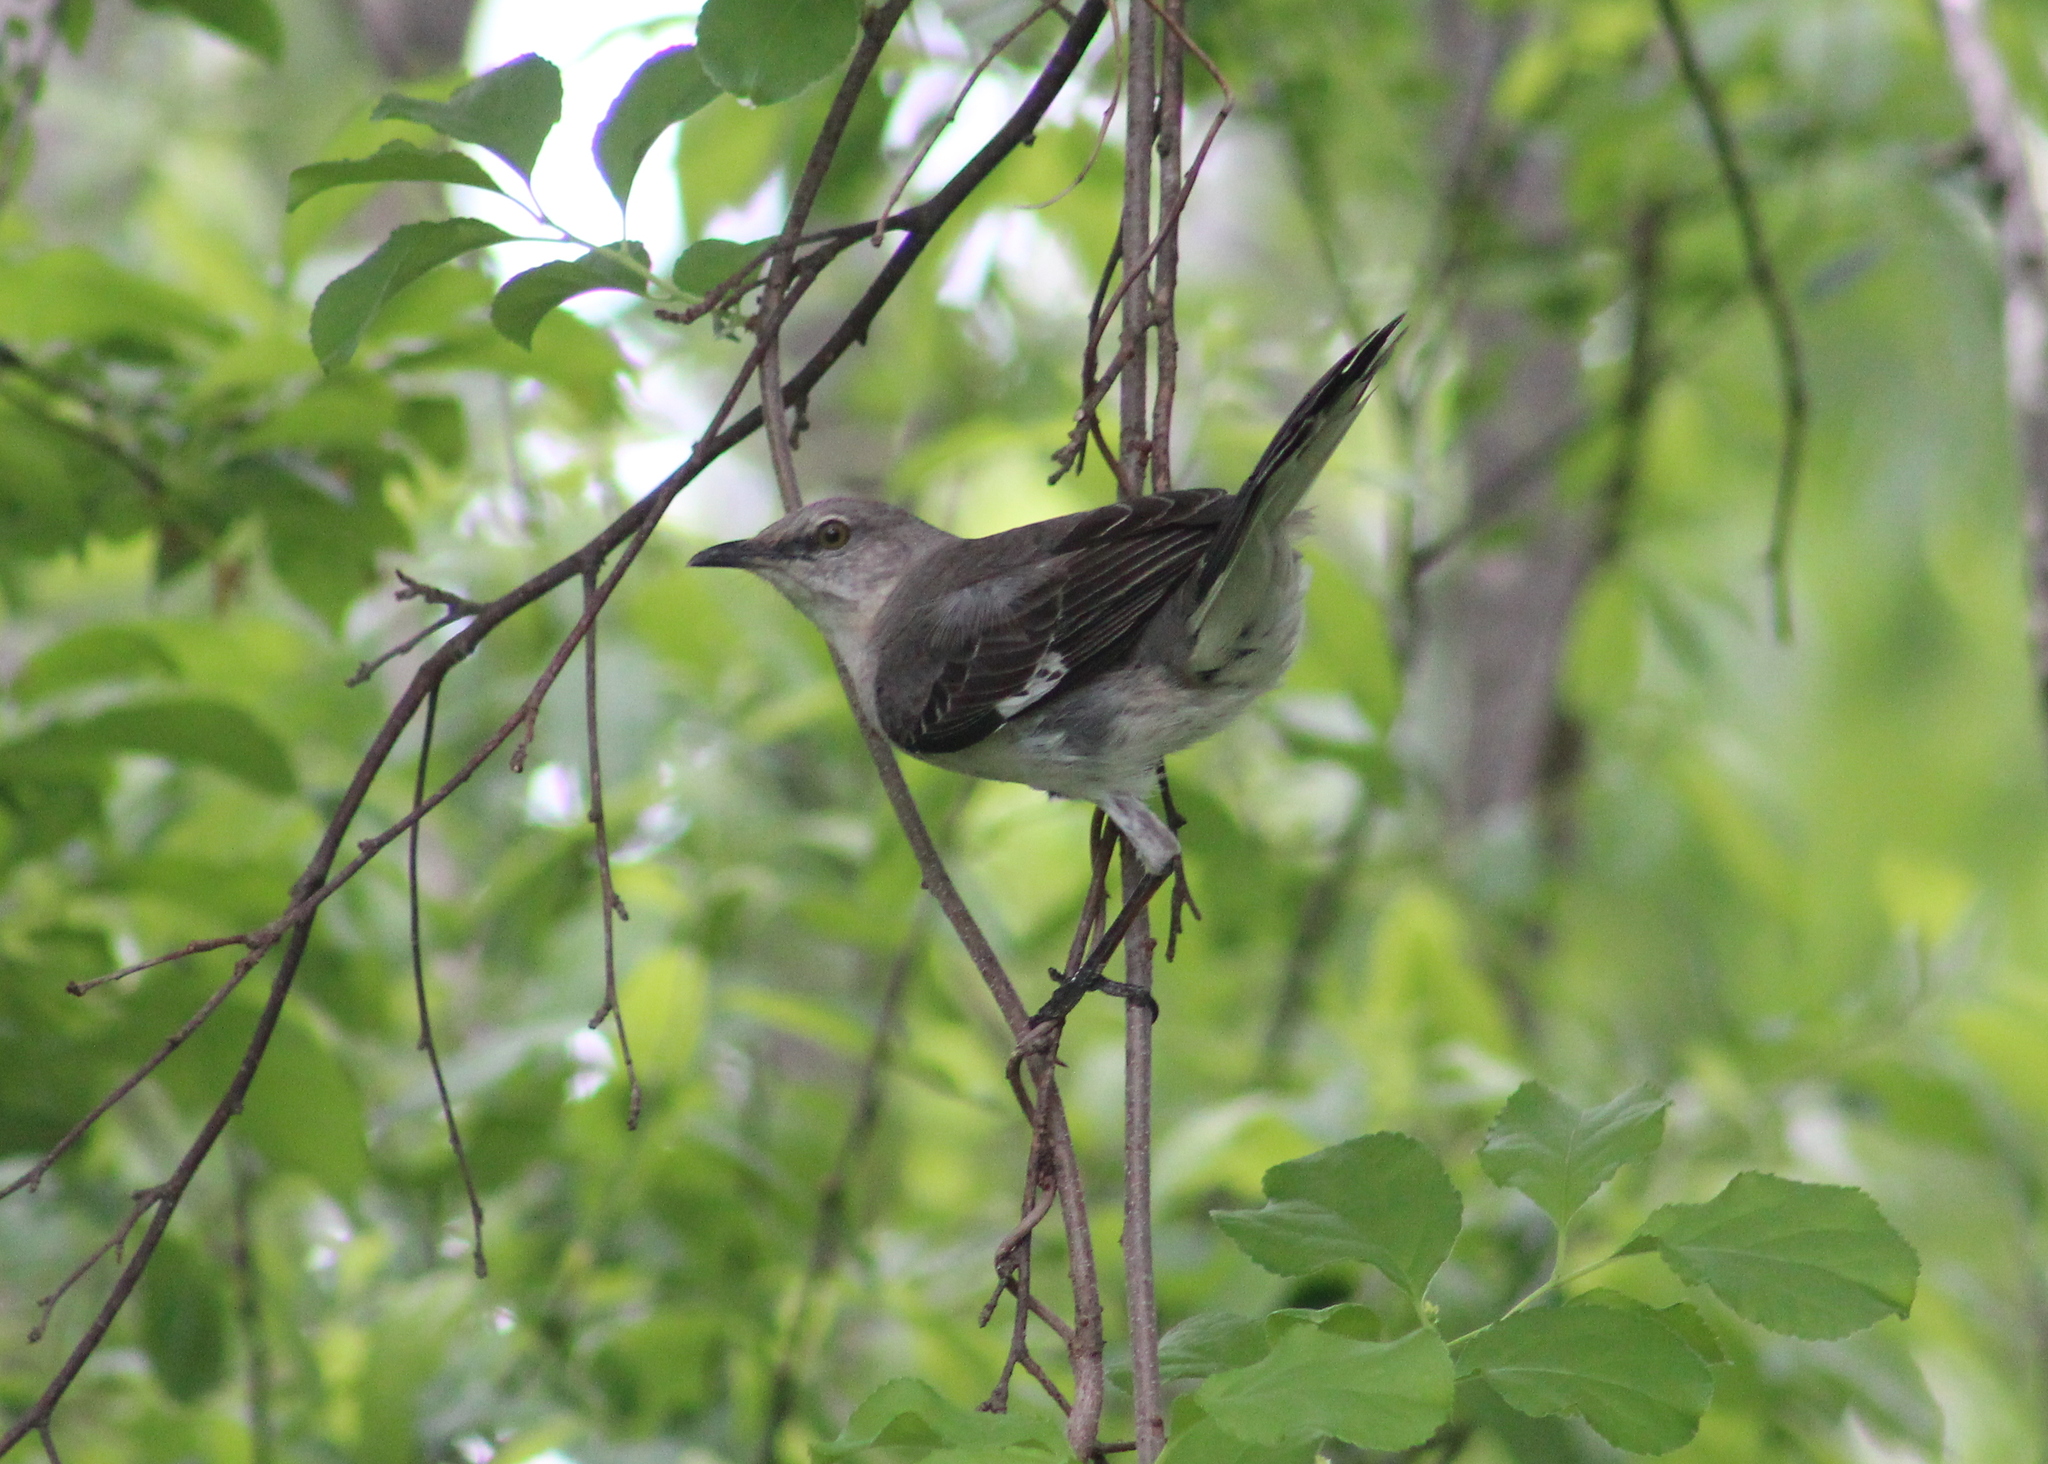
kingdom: Animalia
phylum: Chordata
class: Aves
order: Passeriformes
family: Mimidae
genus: Mimus
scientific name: Mimus polyglottos
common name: Northern mockingbird
